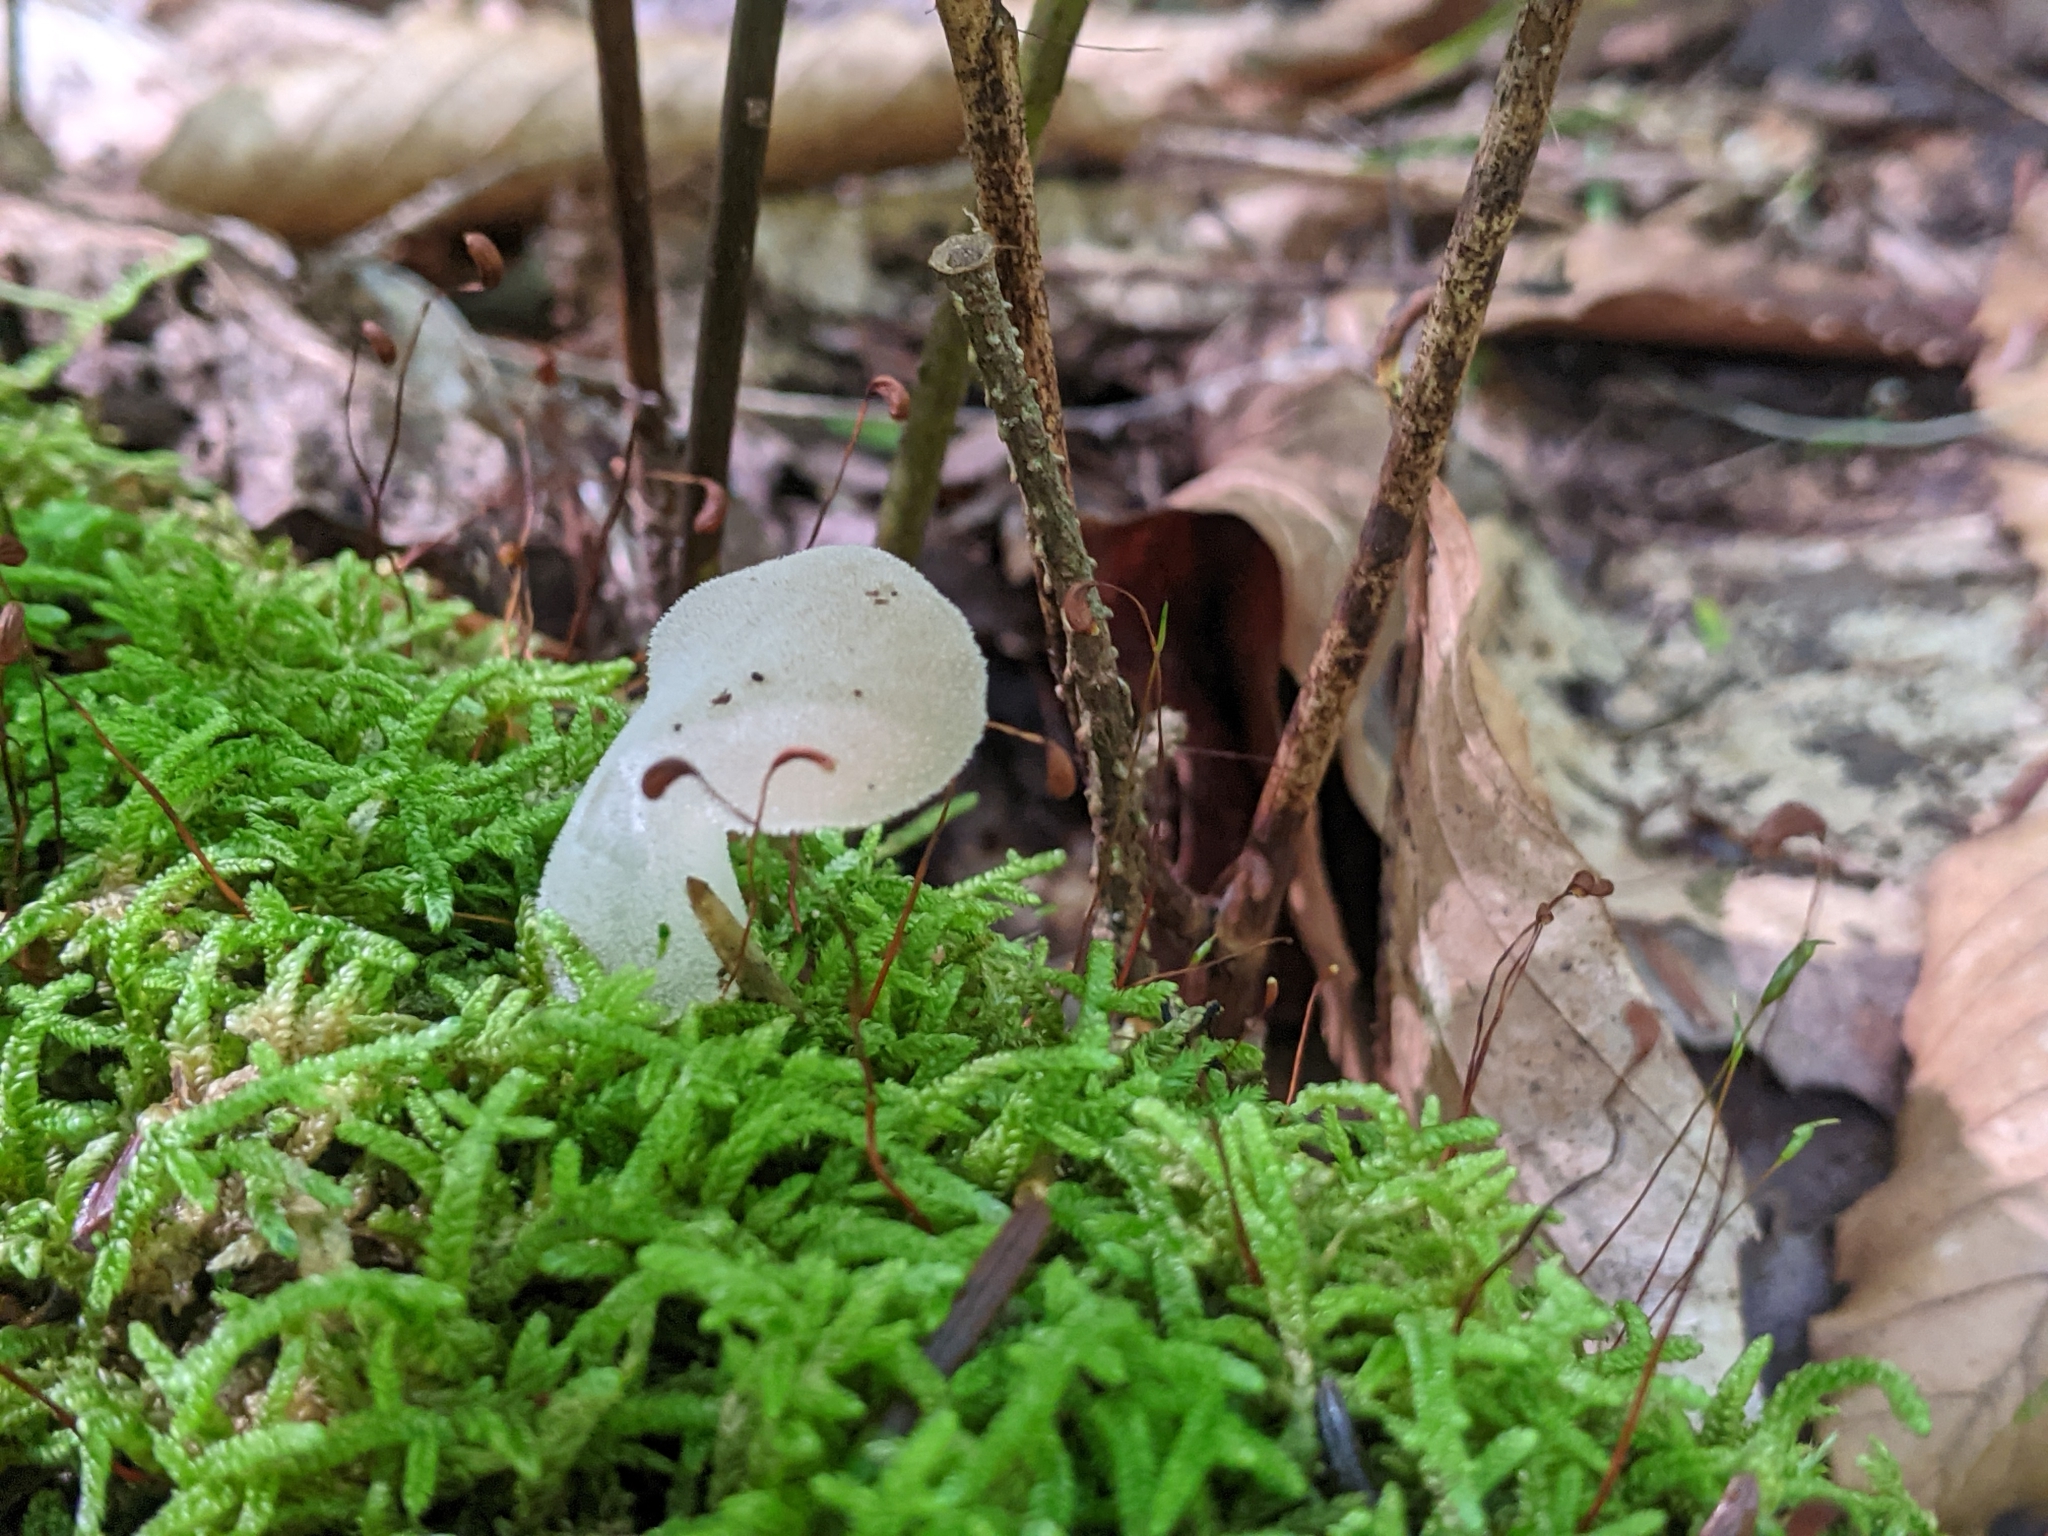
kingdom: Fungi
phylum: Basidiomycota
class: Agaricomycetes
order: Auriculariales
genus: Pseudohydnum
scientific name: Pseudohydnum gelatinosum
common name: Jelly tongue
